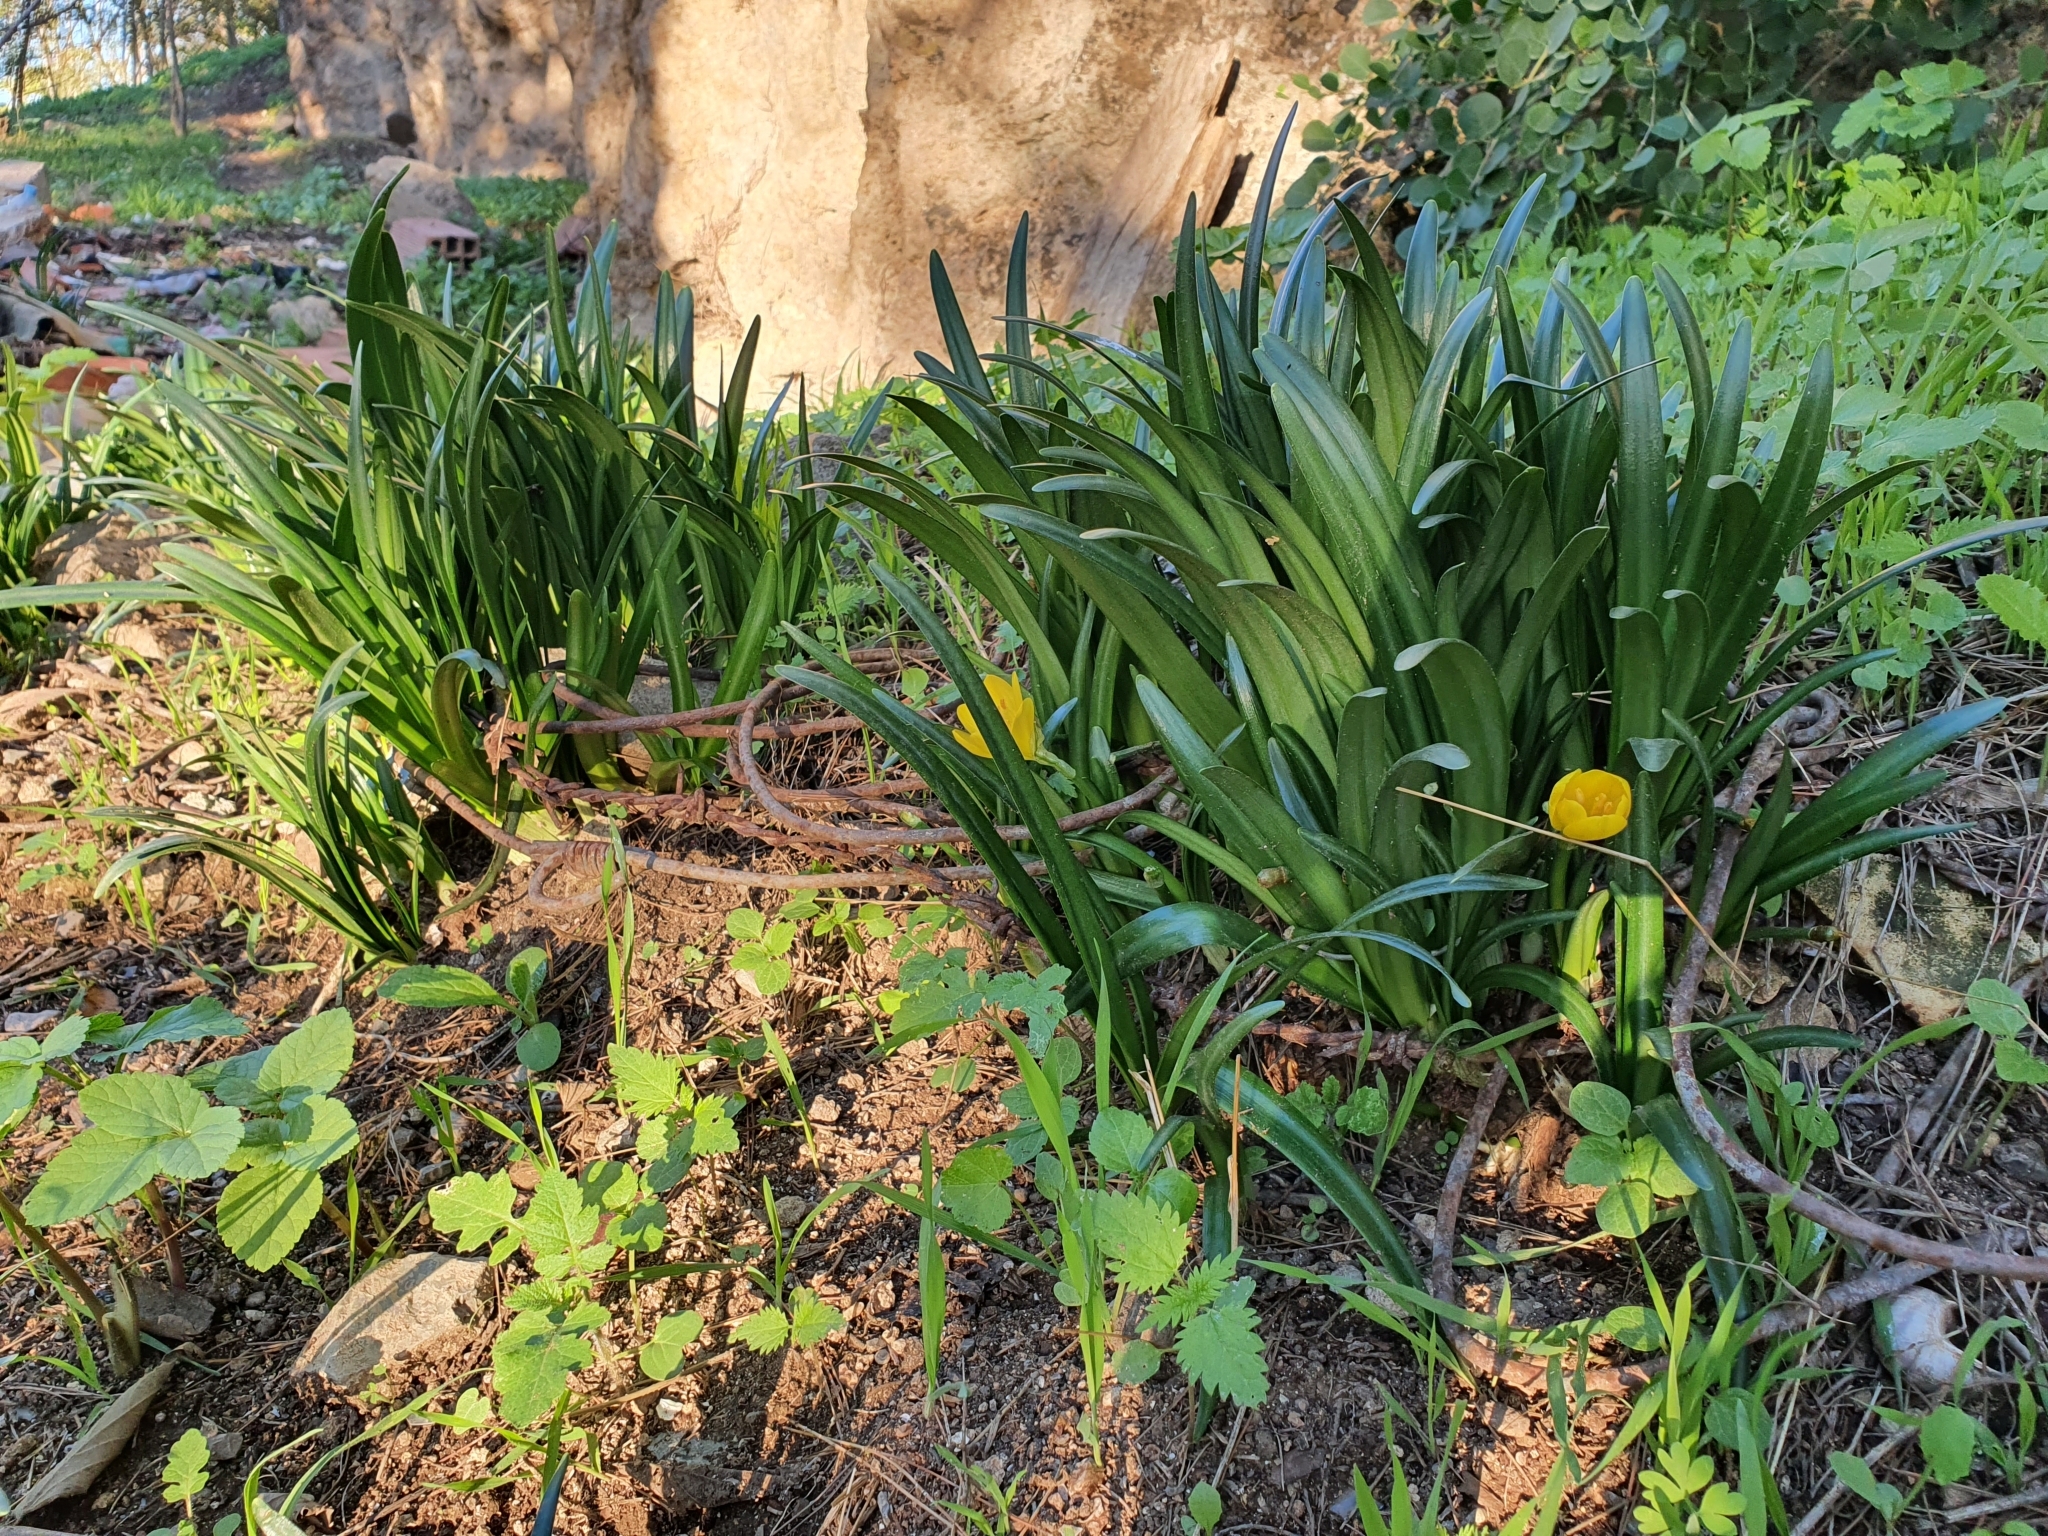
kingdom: Plantae
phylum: Tracheophyta
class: Liliopsida
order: Asparagales
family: Amaryllidaceae
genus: Sternbergia
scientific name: Sternbergia lutea
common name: Winter daffodil
